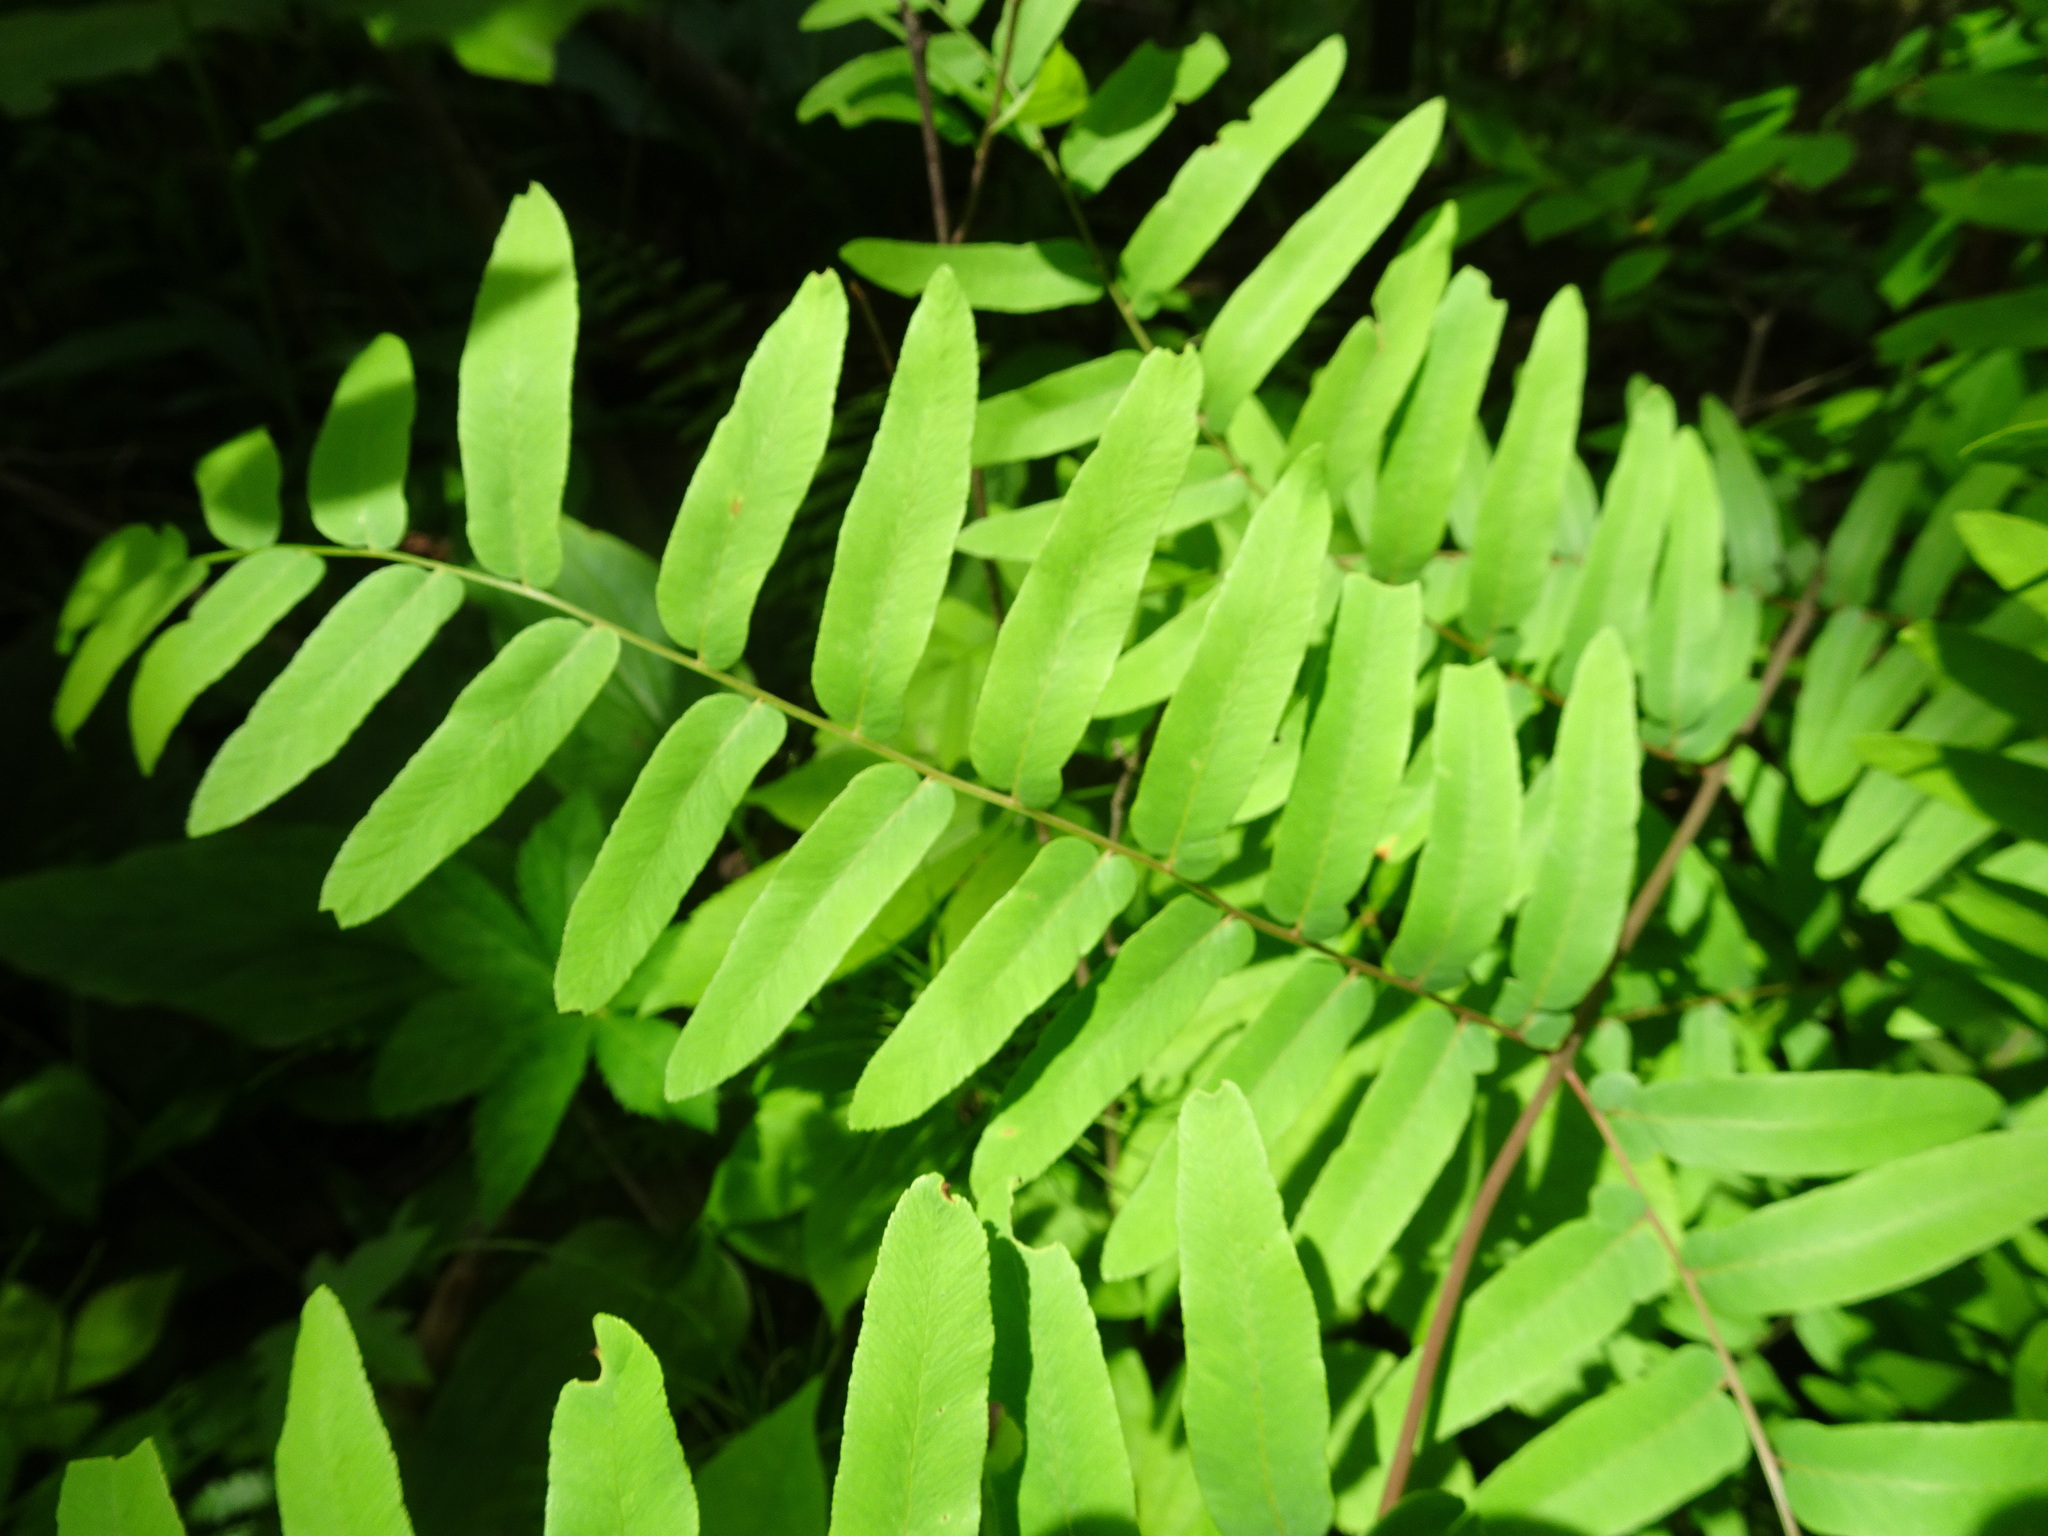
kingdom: Plantae
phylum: Tracheophyta
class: Polypodiopsida
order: Osmundales
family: Osmundaceae
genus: Osmunda
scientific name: Osmunda spectabilis
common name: American royal fern
